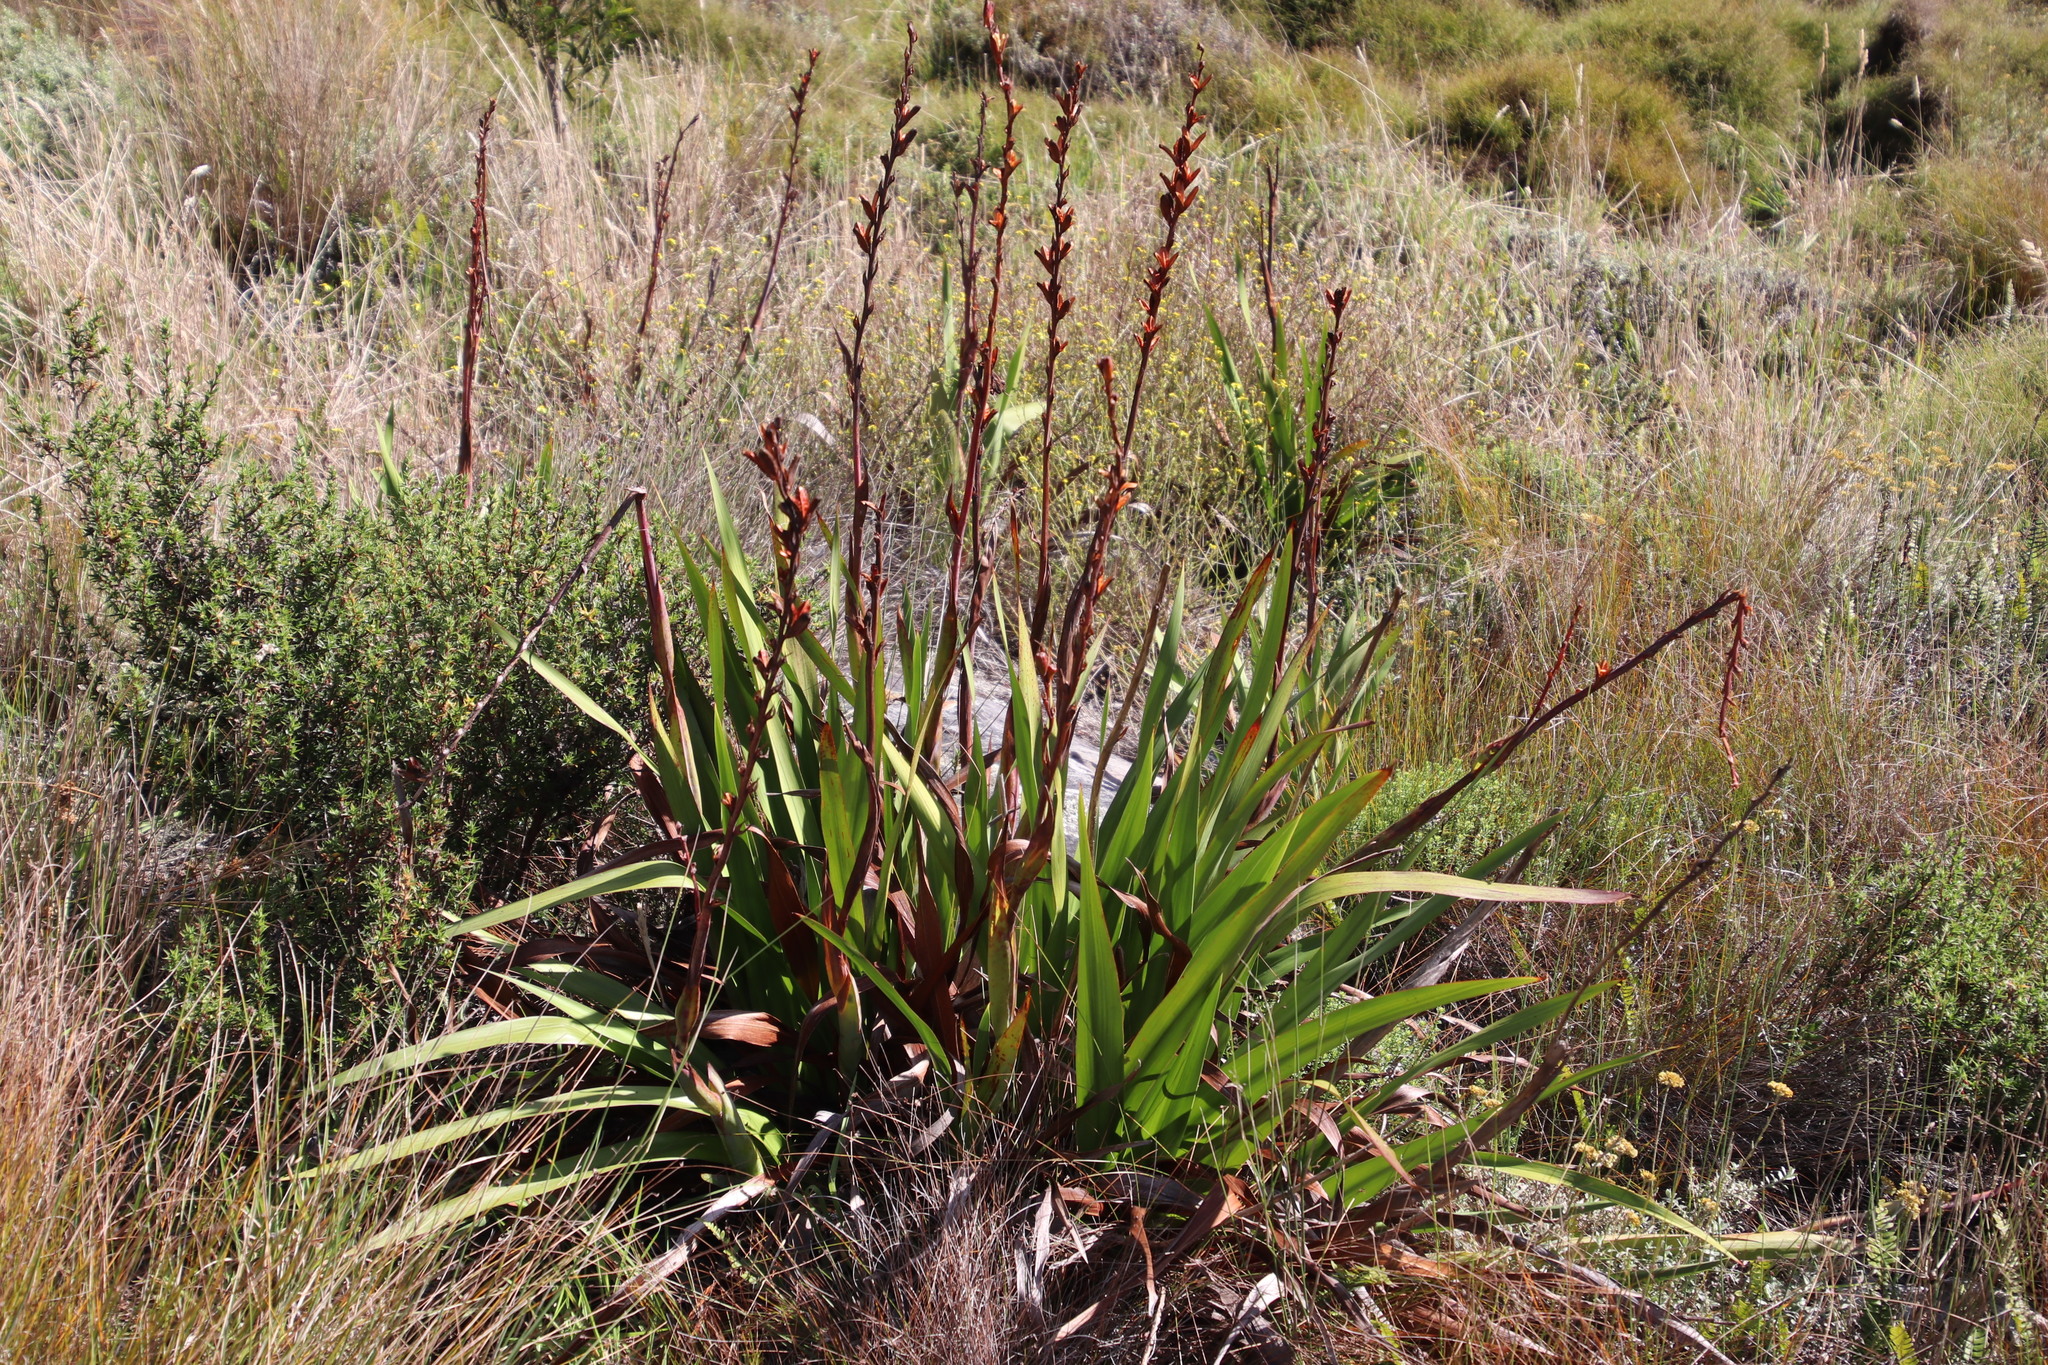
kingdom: Plantae
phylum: Tracheophyta
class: Liliopsida
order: Asparagales
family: Iridaceae
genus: Watsonia
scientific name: Watsonia tabularis
